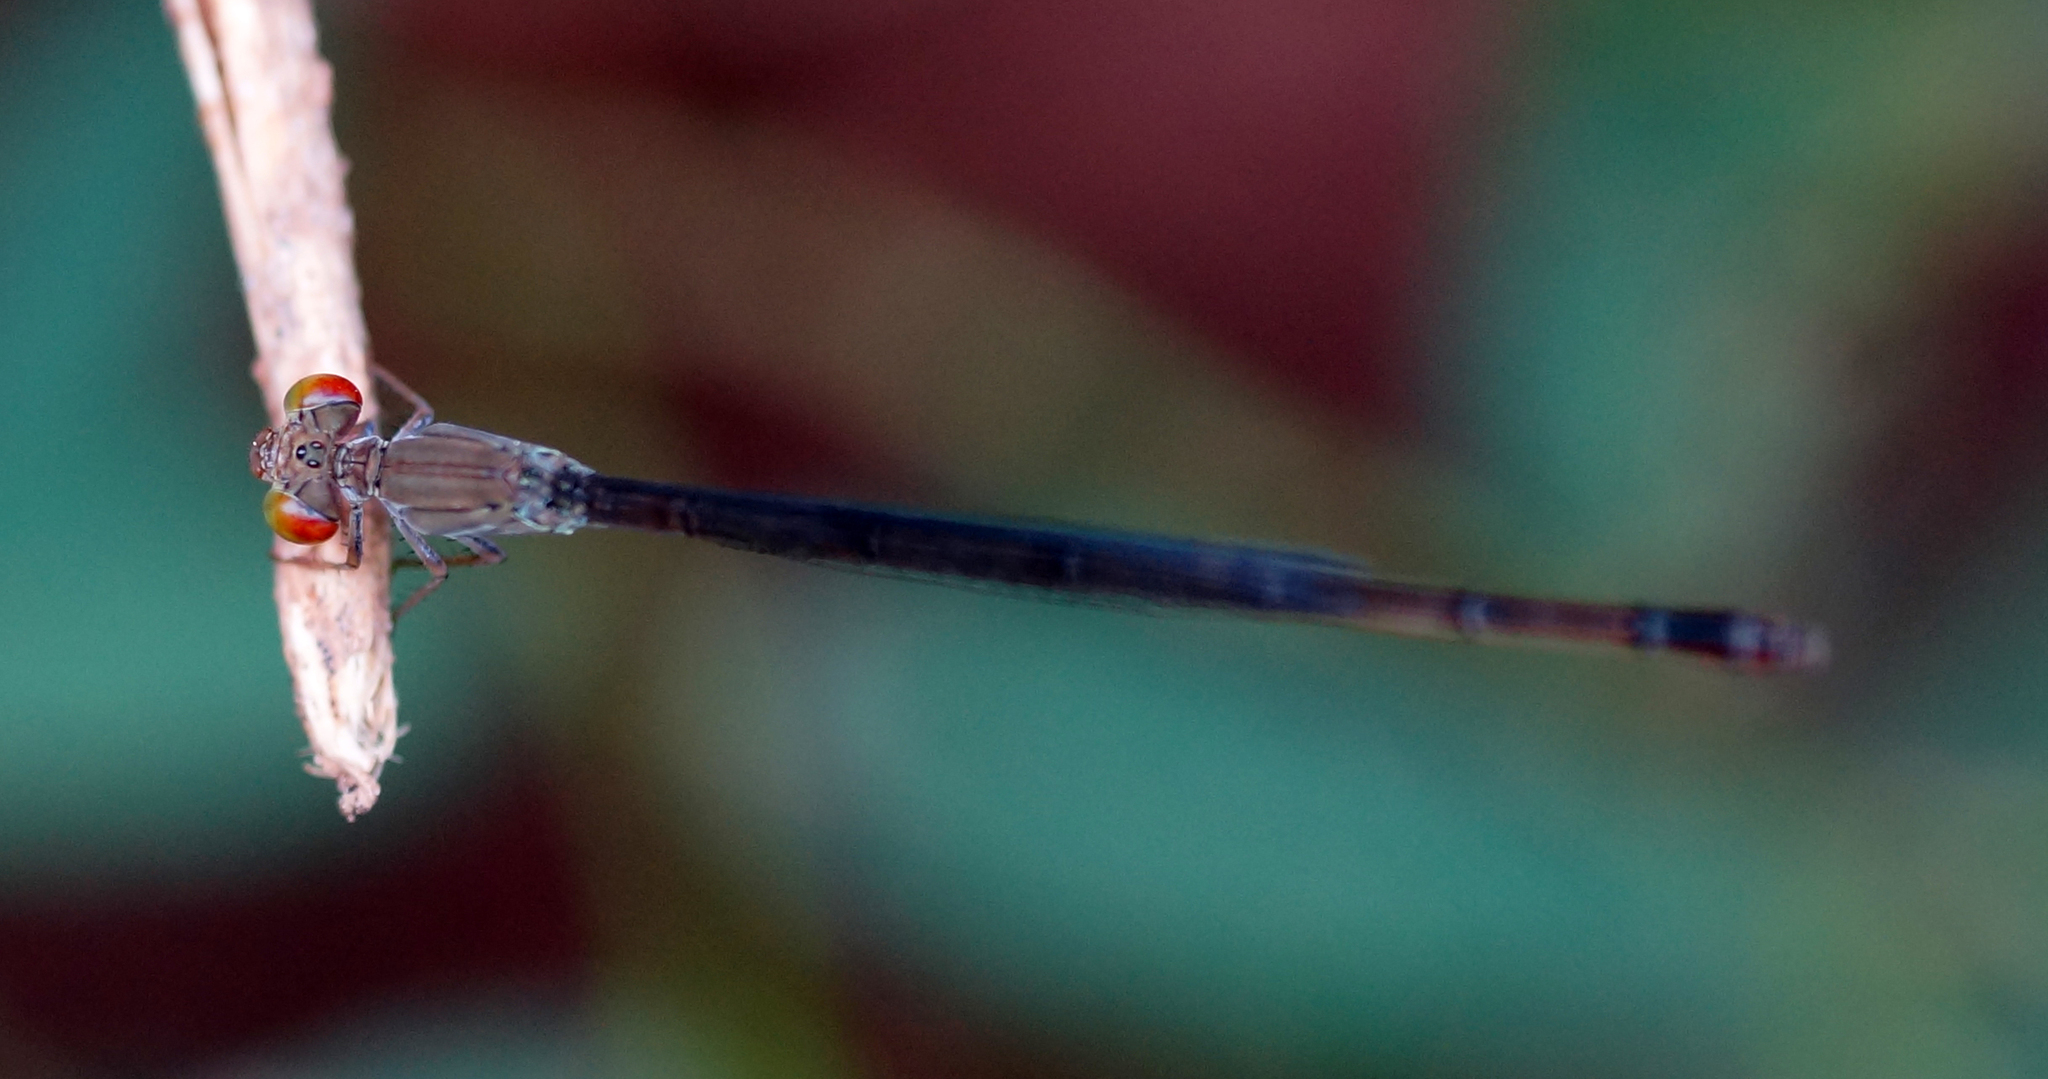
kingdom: Animalia
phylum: Arthropoda
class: Insecta
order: Odonata
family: Coenagrionidae
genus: Ceriagrion
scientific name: Ceriagrion praetermissum
